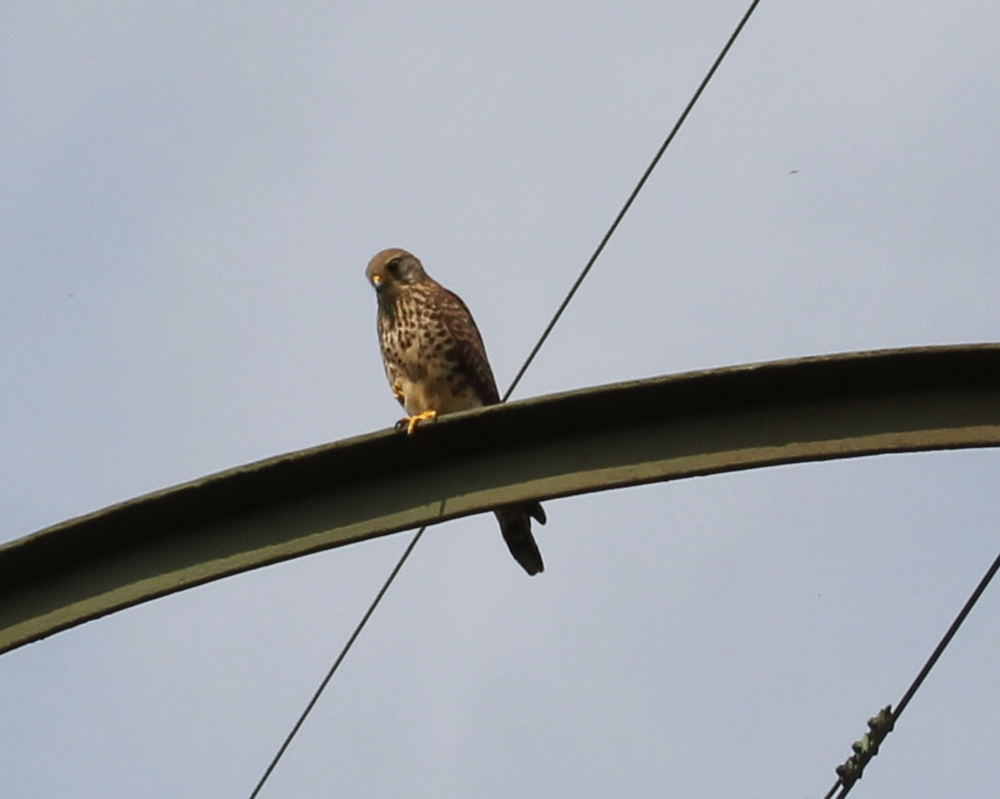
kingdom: Animalia
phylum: Chordata
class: Aves
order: Falconiformes
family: Falconidae
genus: Falco
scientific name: Falco tinnunculus
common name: Common kestrel
